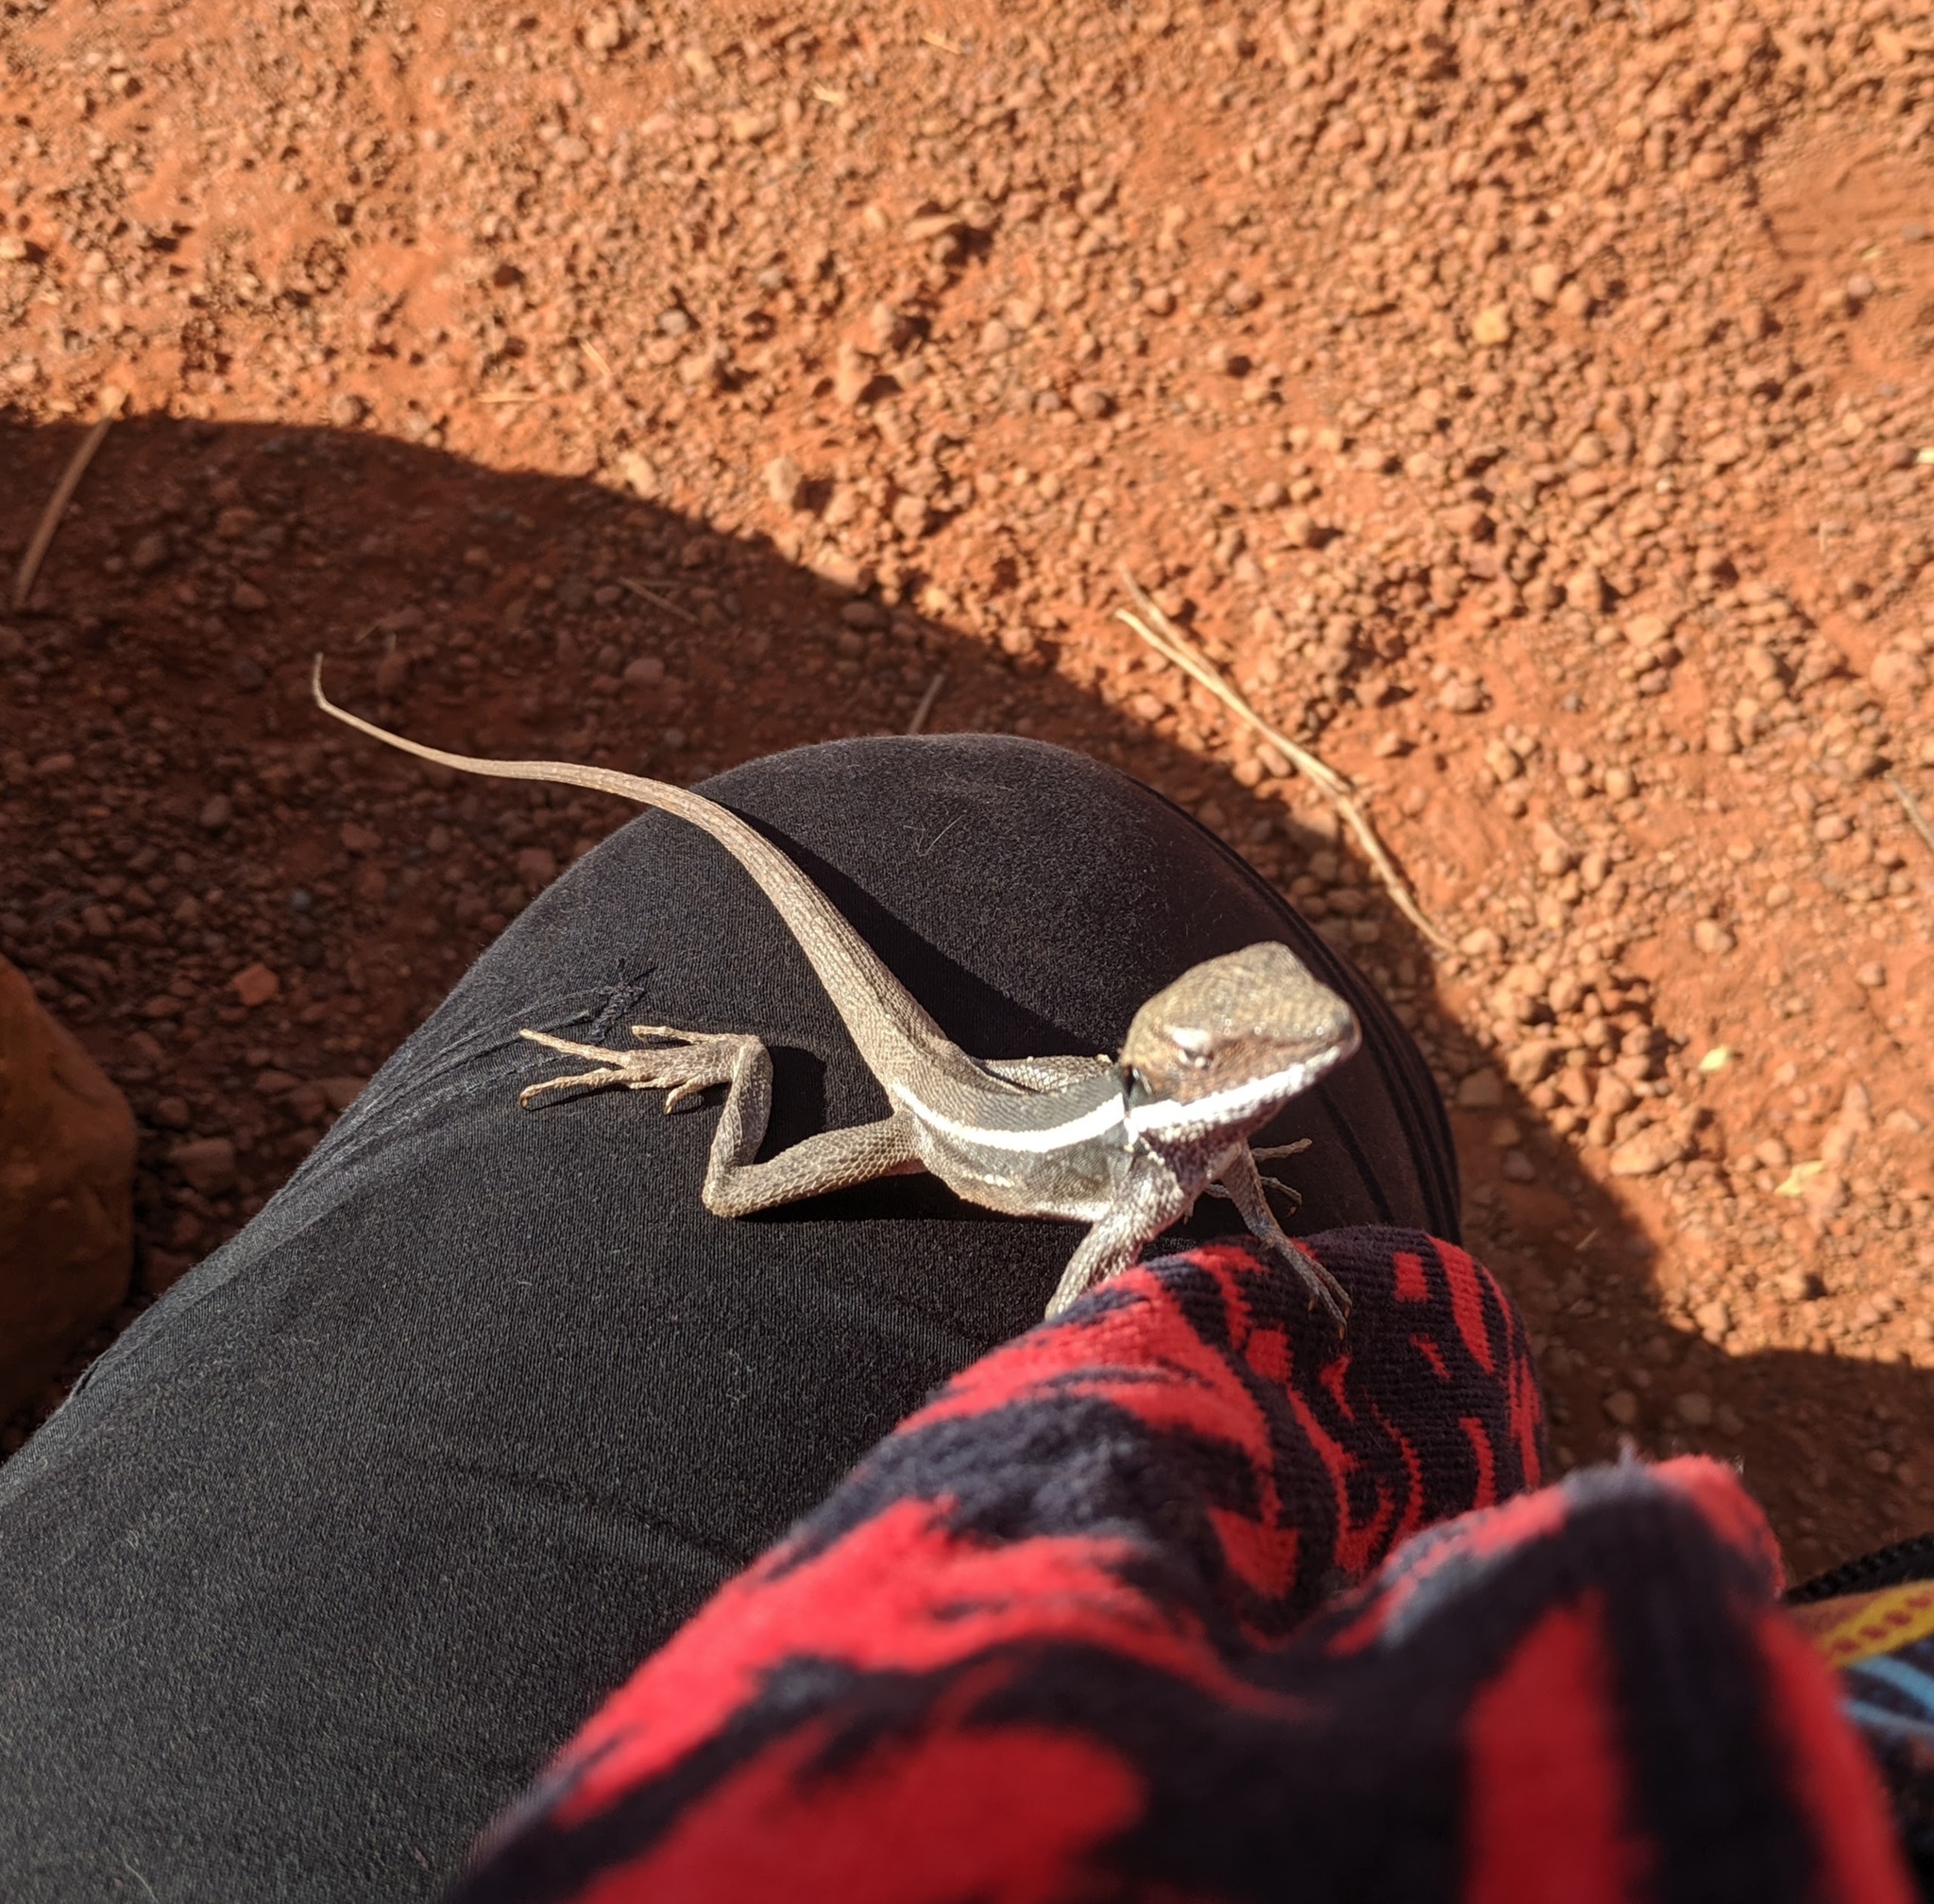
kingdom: Animalia
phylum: Chordata
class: Squamata
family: Agamidae
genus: Gowidon
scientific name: Gowidon longirostris
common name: Long-nosed water dragon
